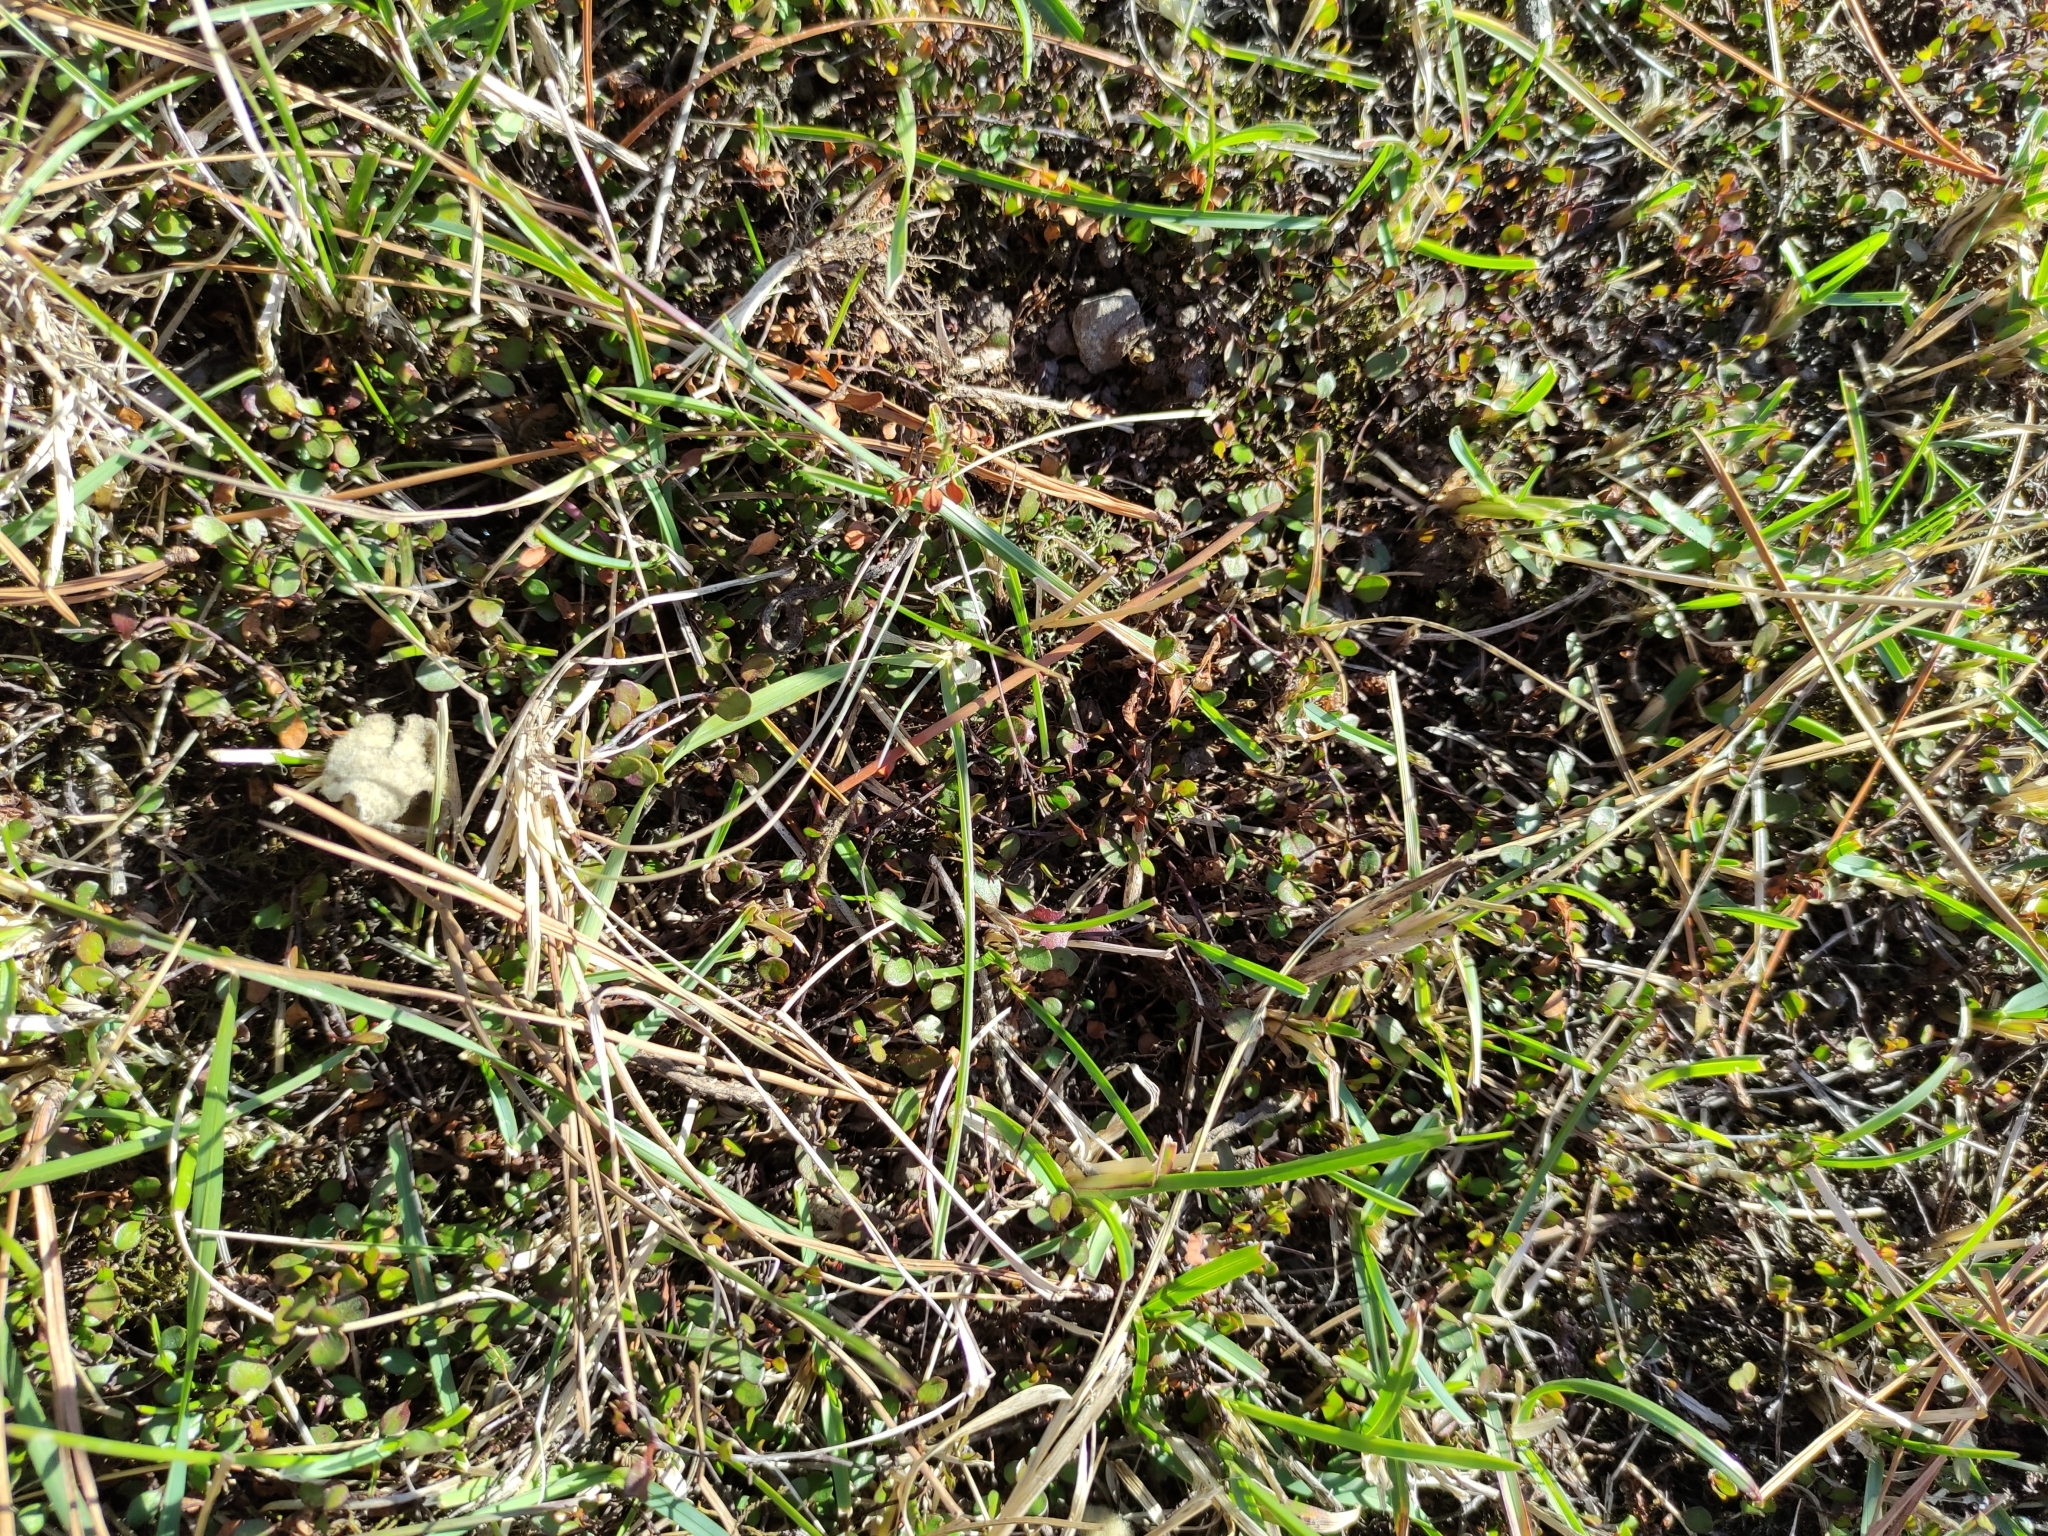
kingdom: Plantae
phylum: Tracheophyta
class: Magnoliopsida
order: Caryophyllales
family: Polygonaceae
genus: Muehlenbeckia
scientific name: Muehlenbeckia axillaris
